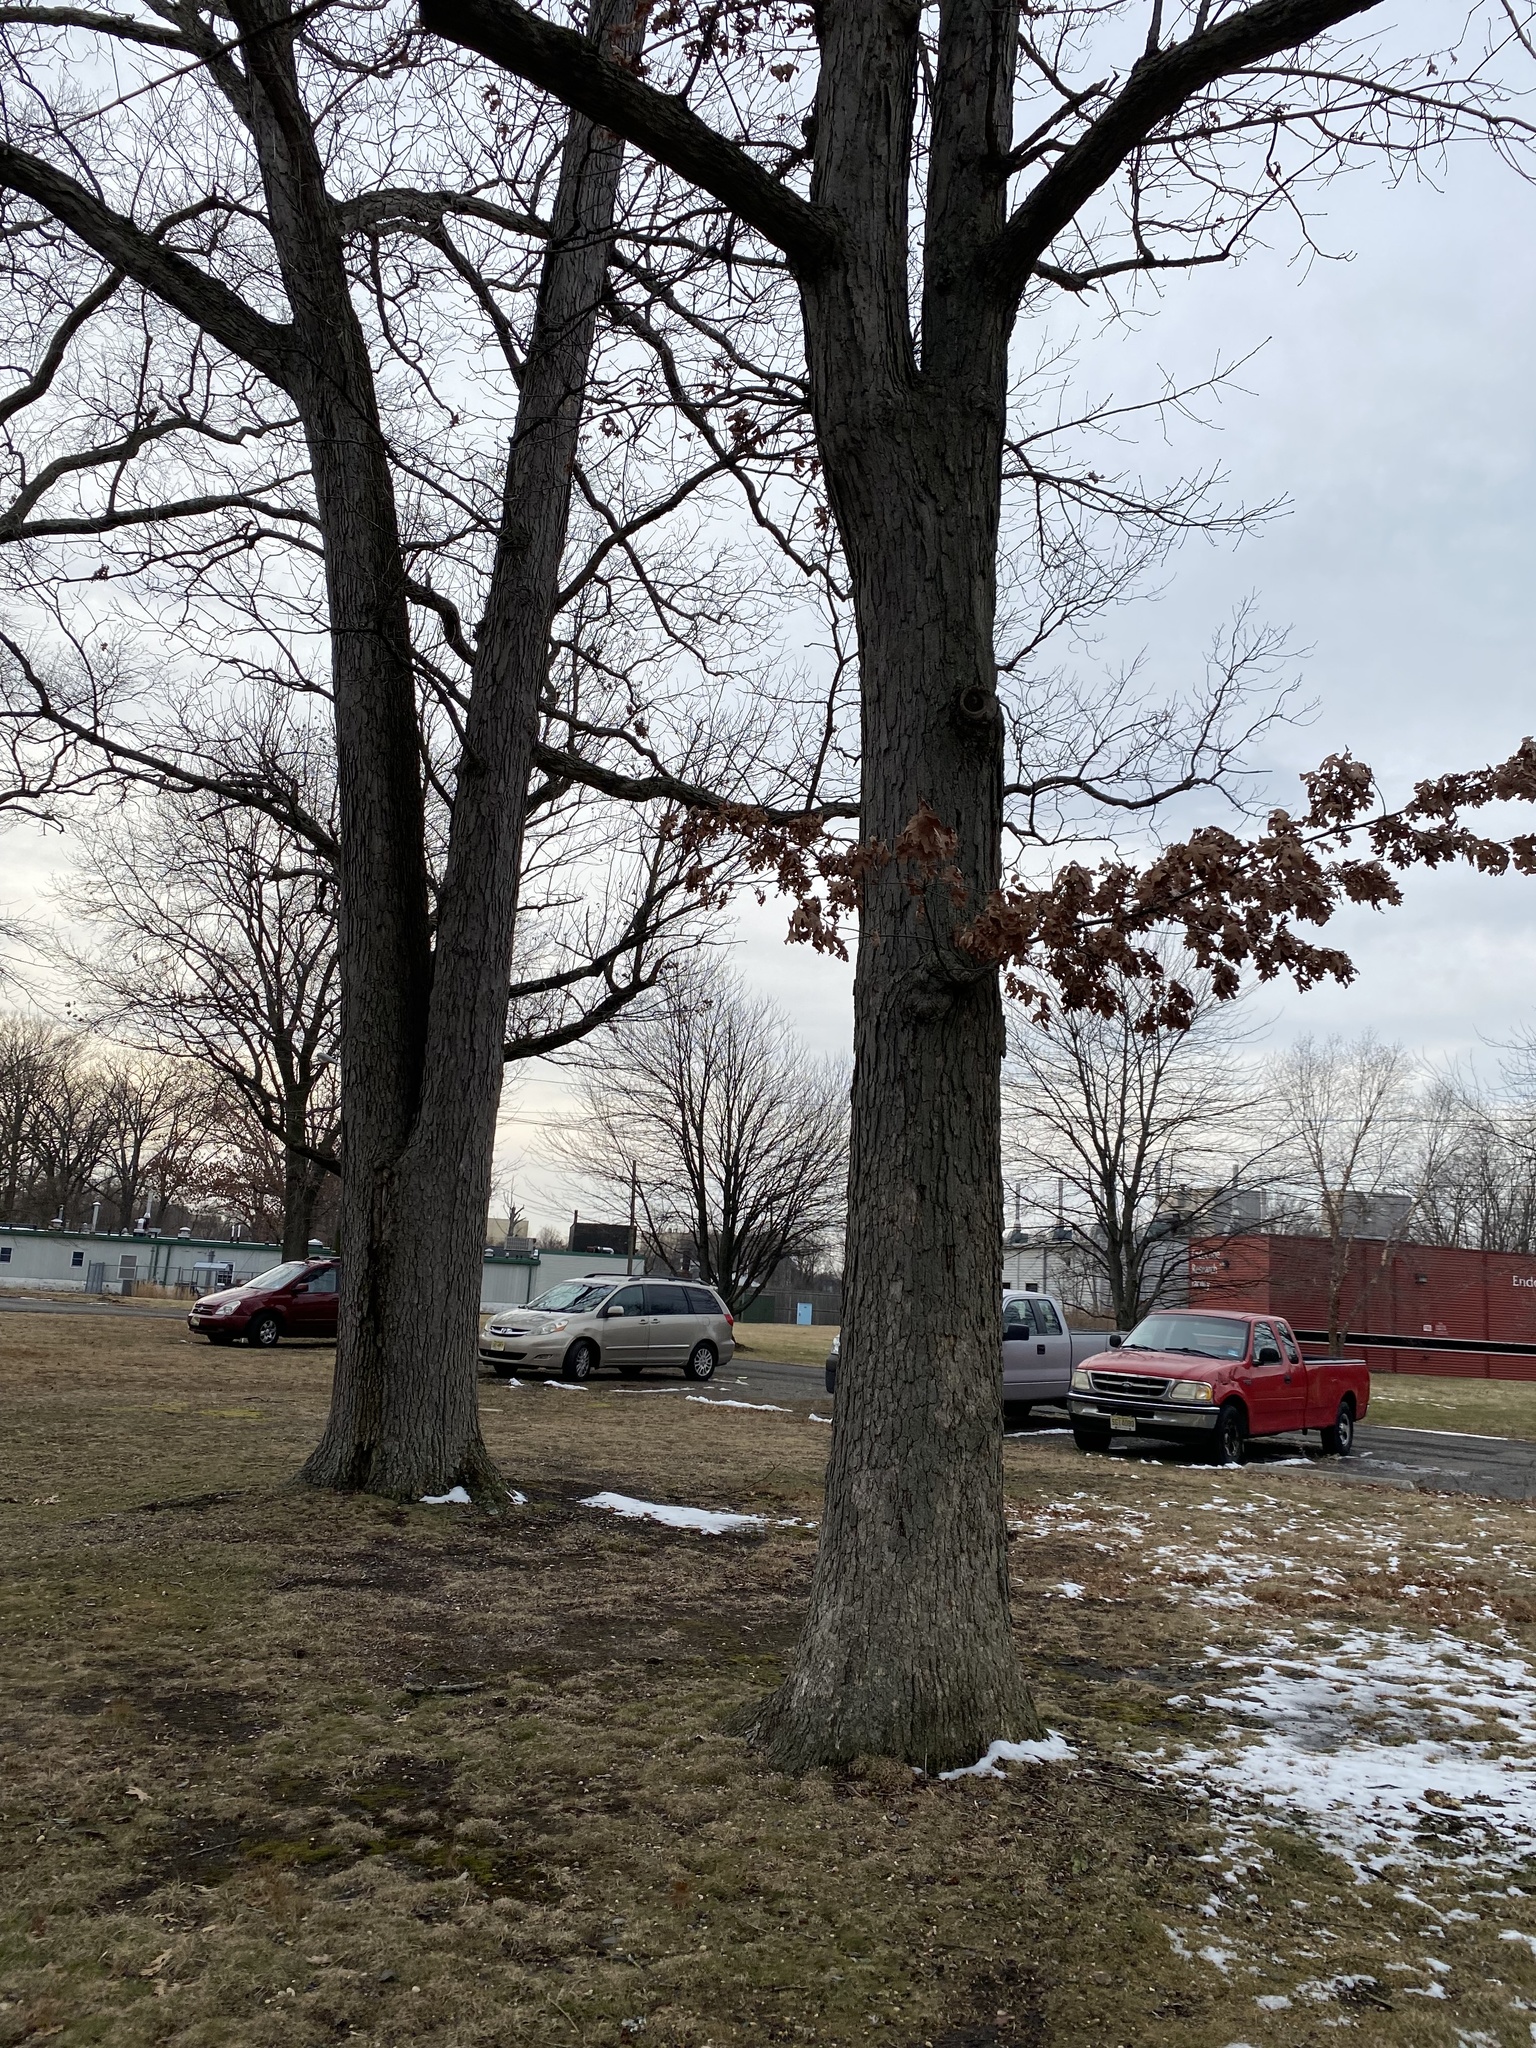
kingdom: Plantae
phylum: Tracheophyta
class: Magnoliopsida
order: Fagales
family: Fagaceae
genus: Quercus
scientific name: Quercus alba
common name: White oak
